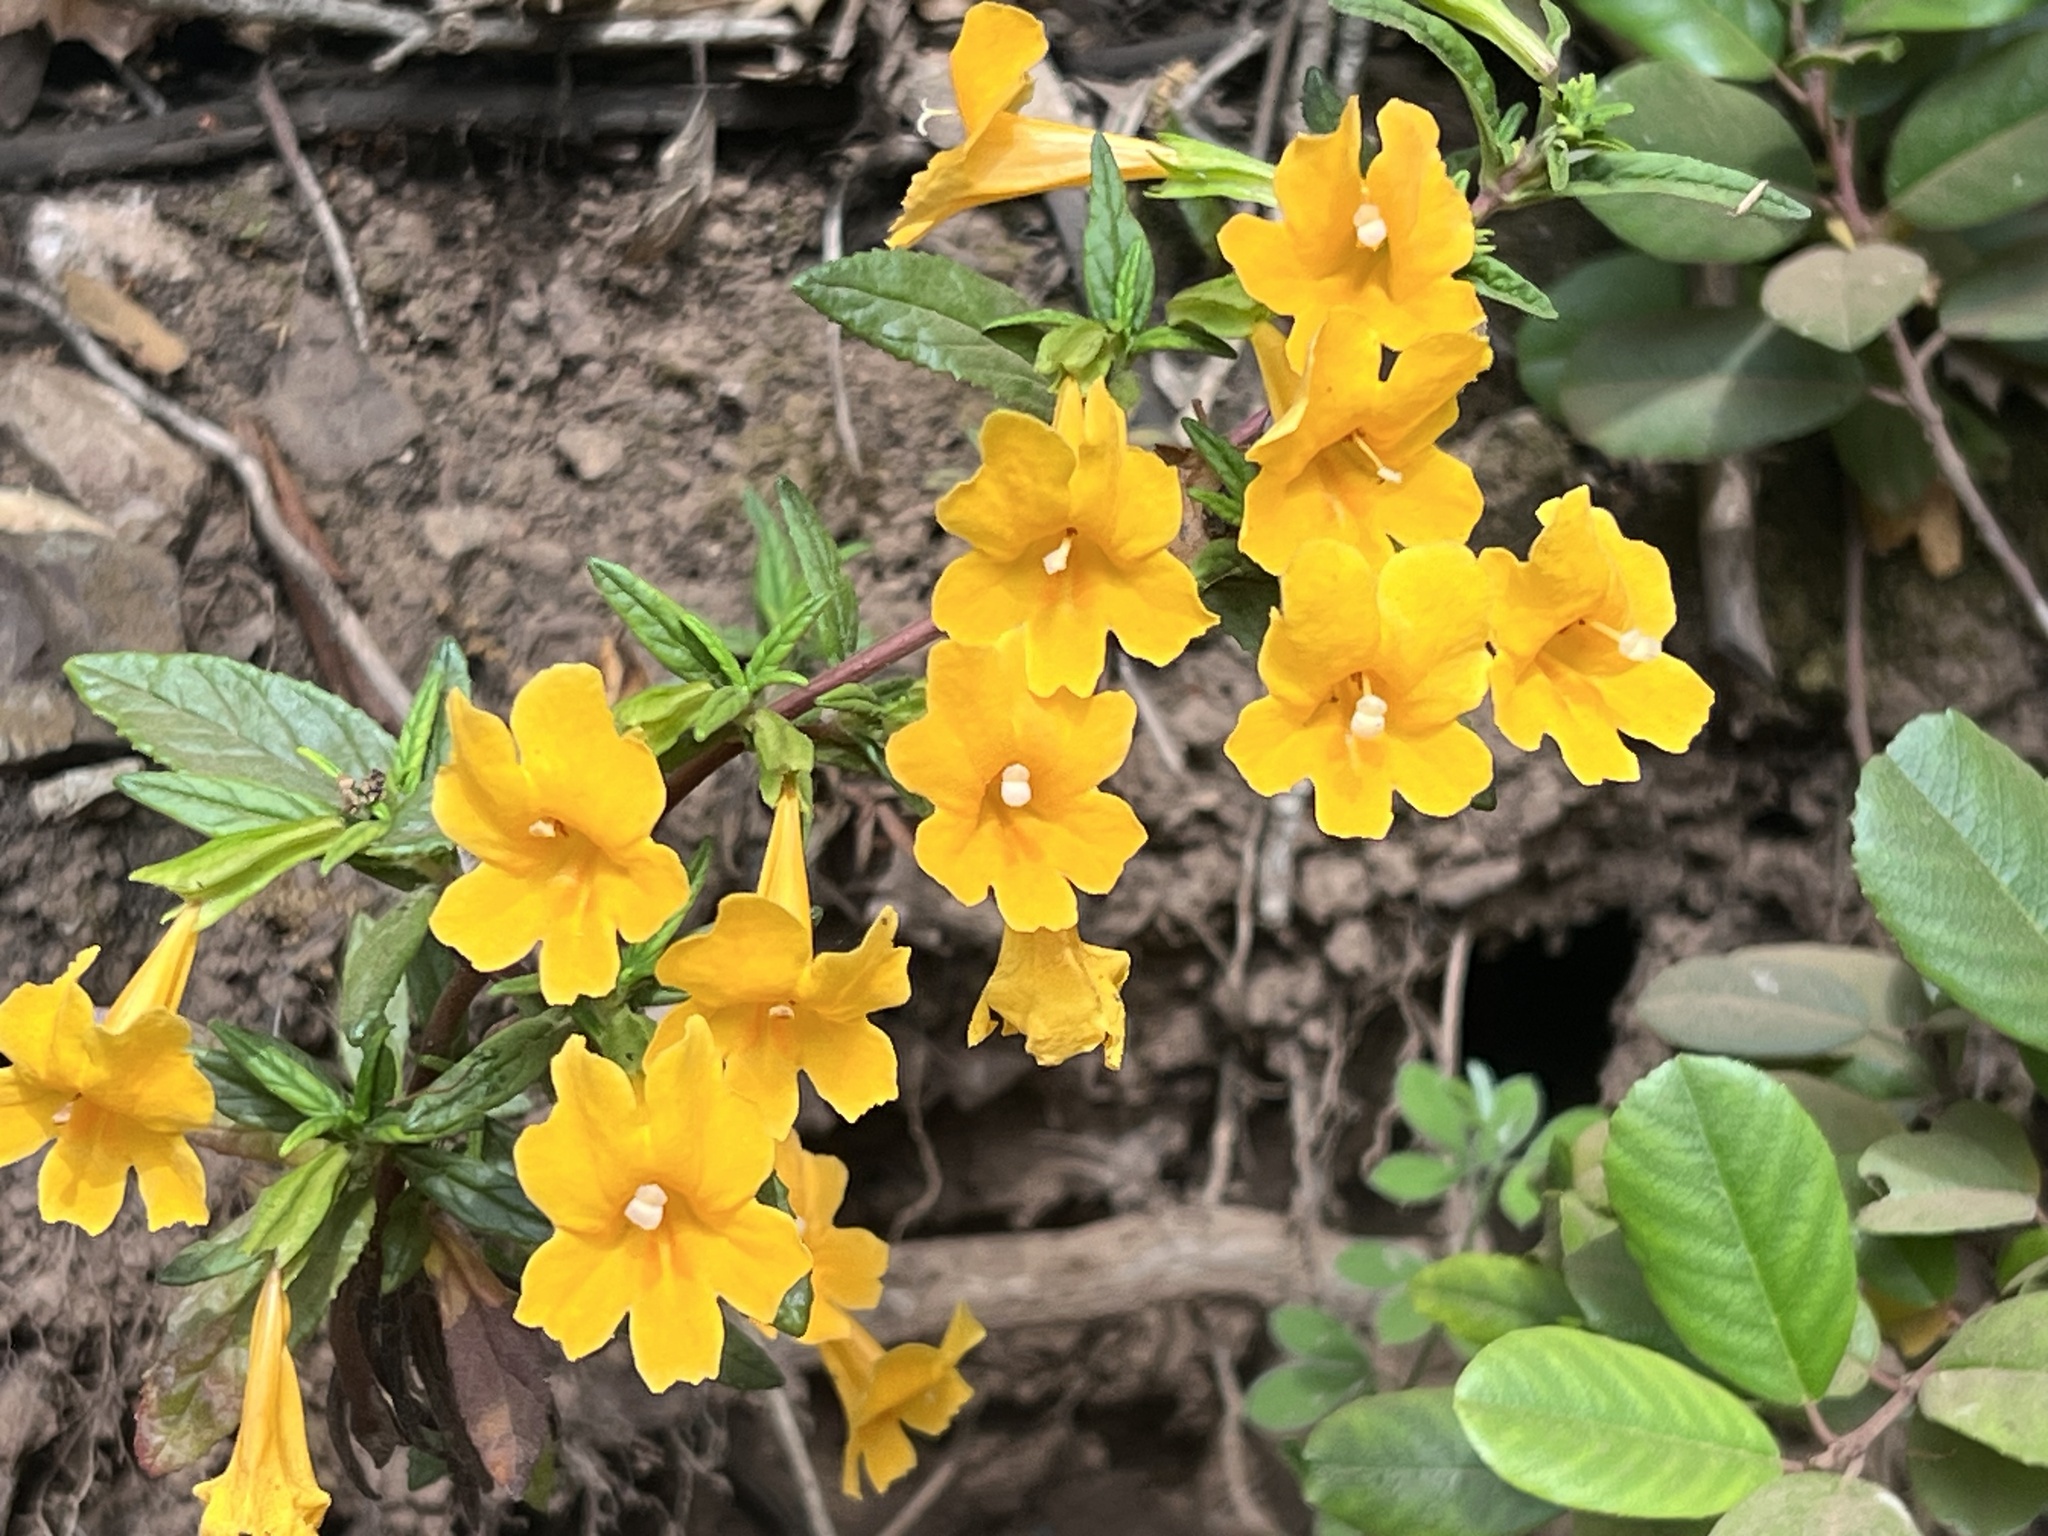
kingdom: Plantae
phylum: Tracheophyta
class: Magnoliopsida
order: Lamiales
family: Phrymaceae
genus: Diplacus
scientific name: Diplacus aurantiacus
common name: Bush monkey-flower
